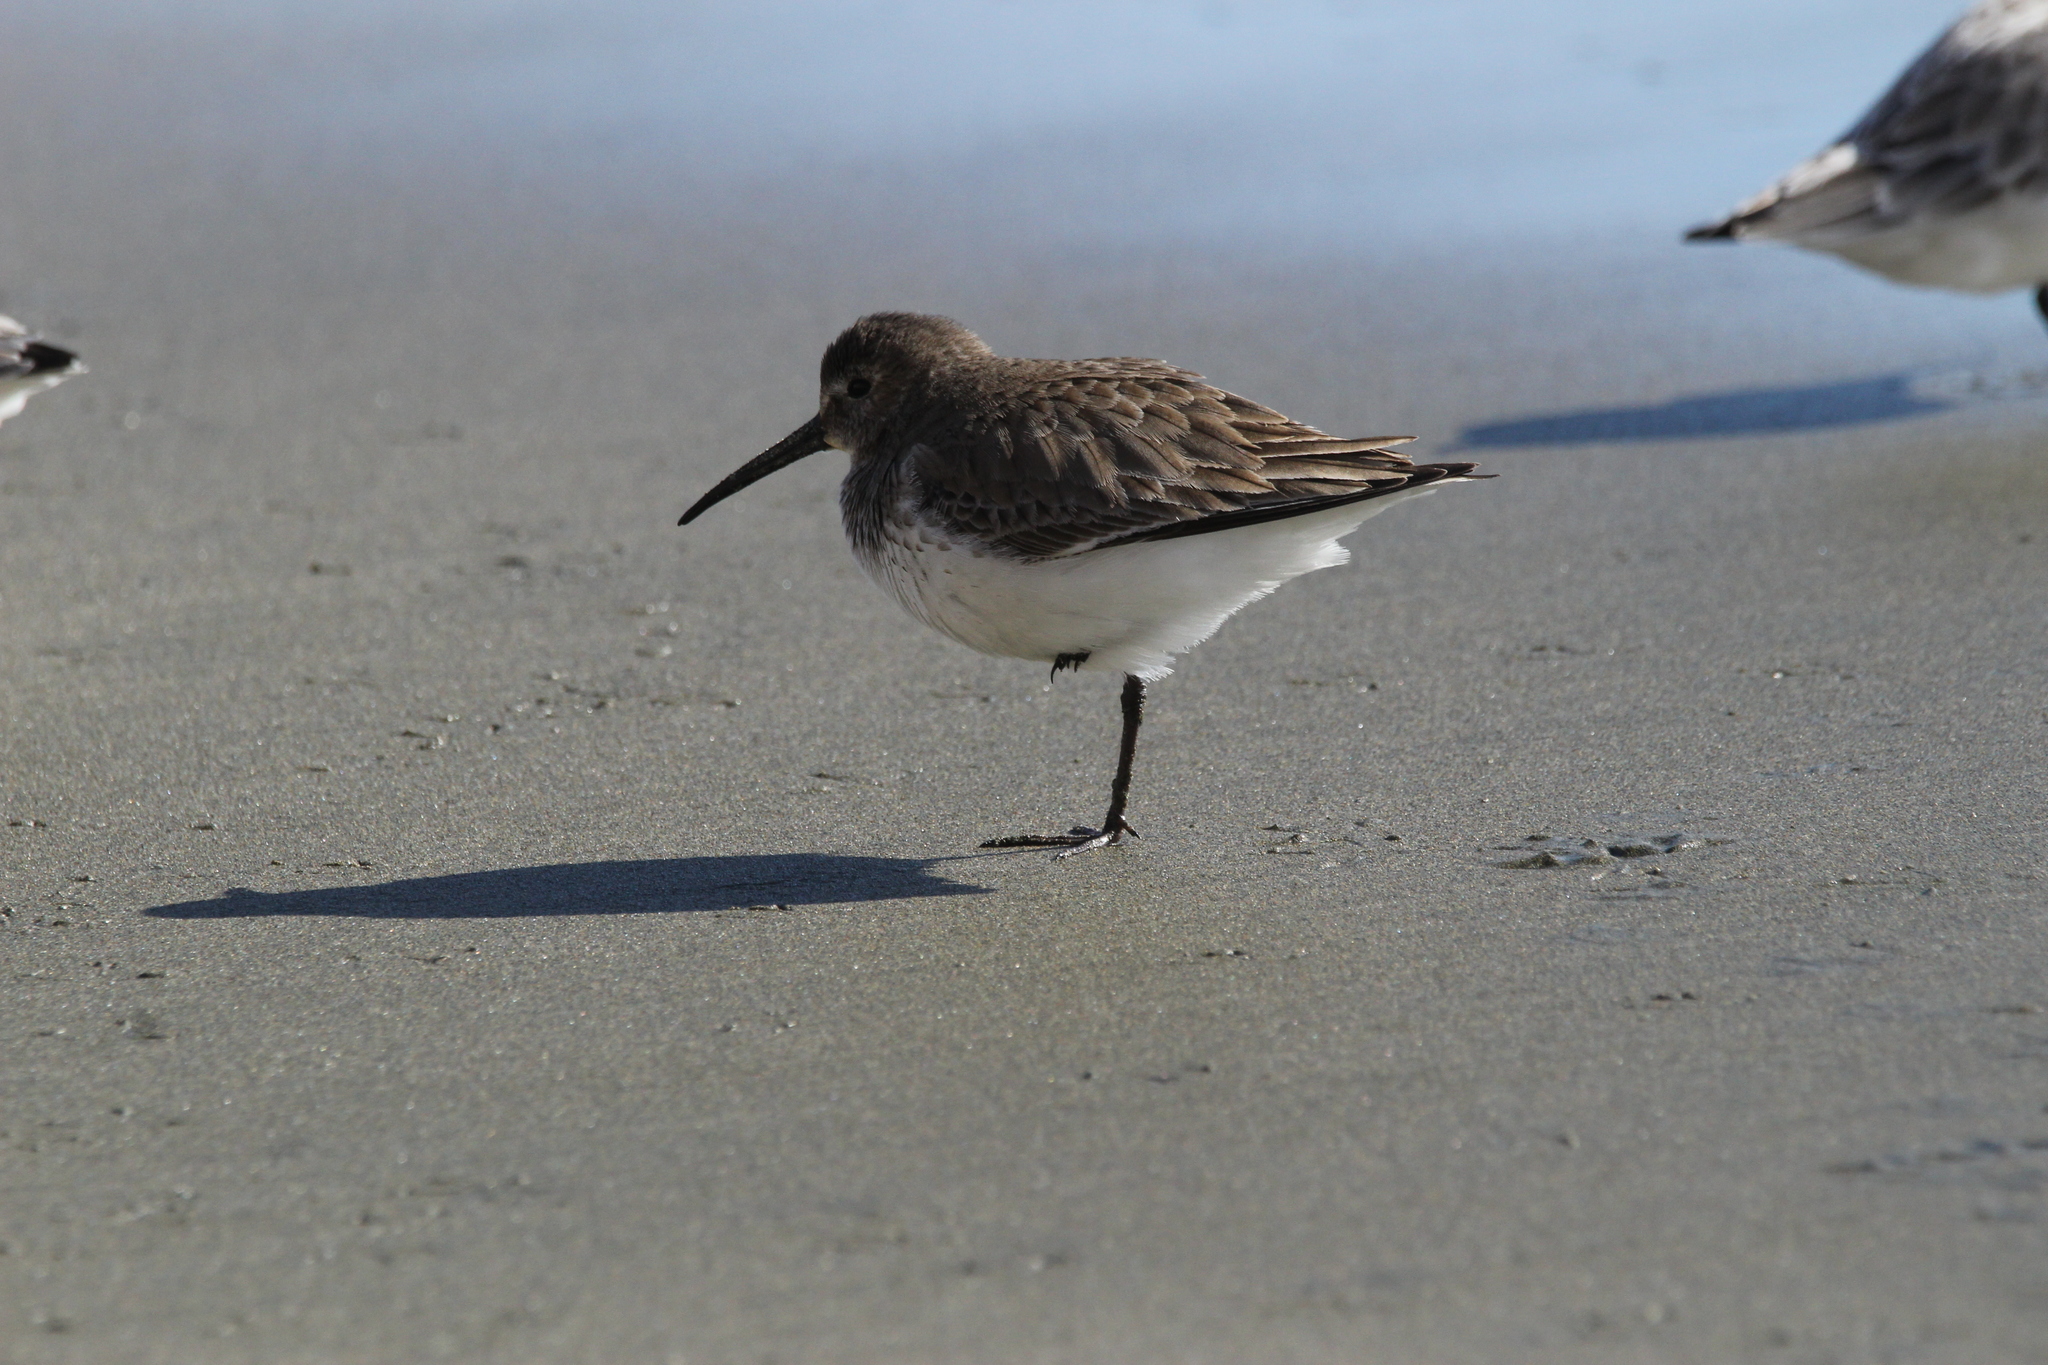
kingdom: Animalia
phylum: Chordata
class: Aves
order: Charadriiformes
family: Scolopacidae
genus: Calidris
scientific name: Calidris alpina
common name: Dunlin
